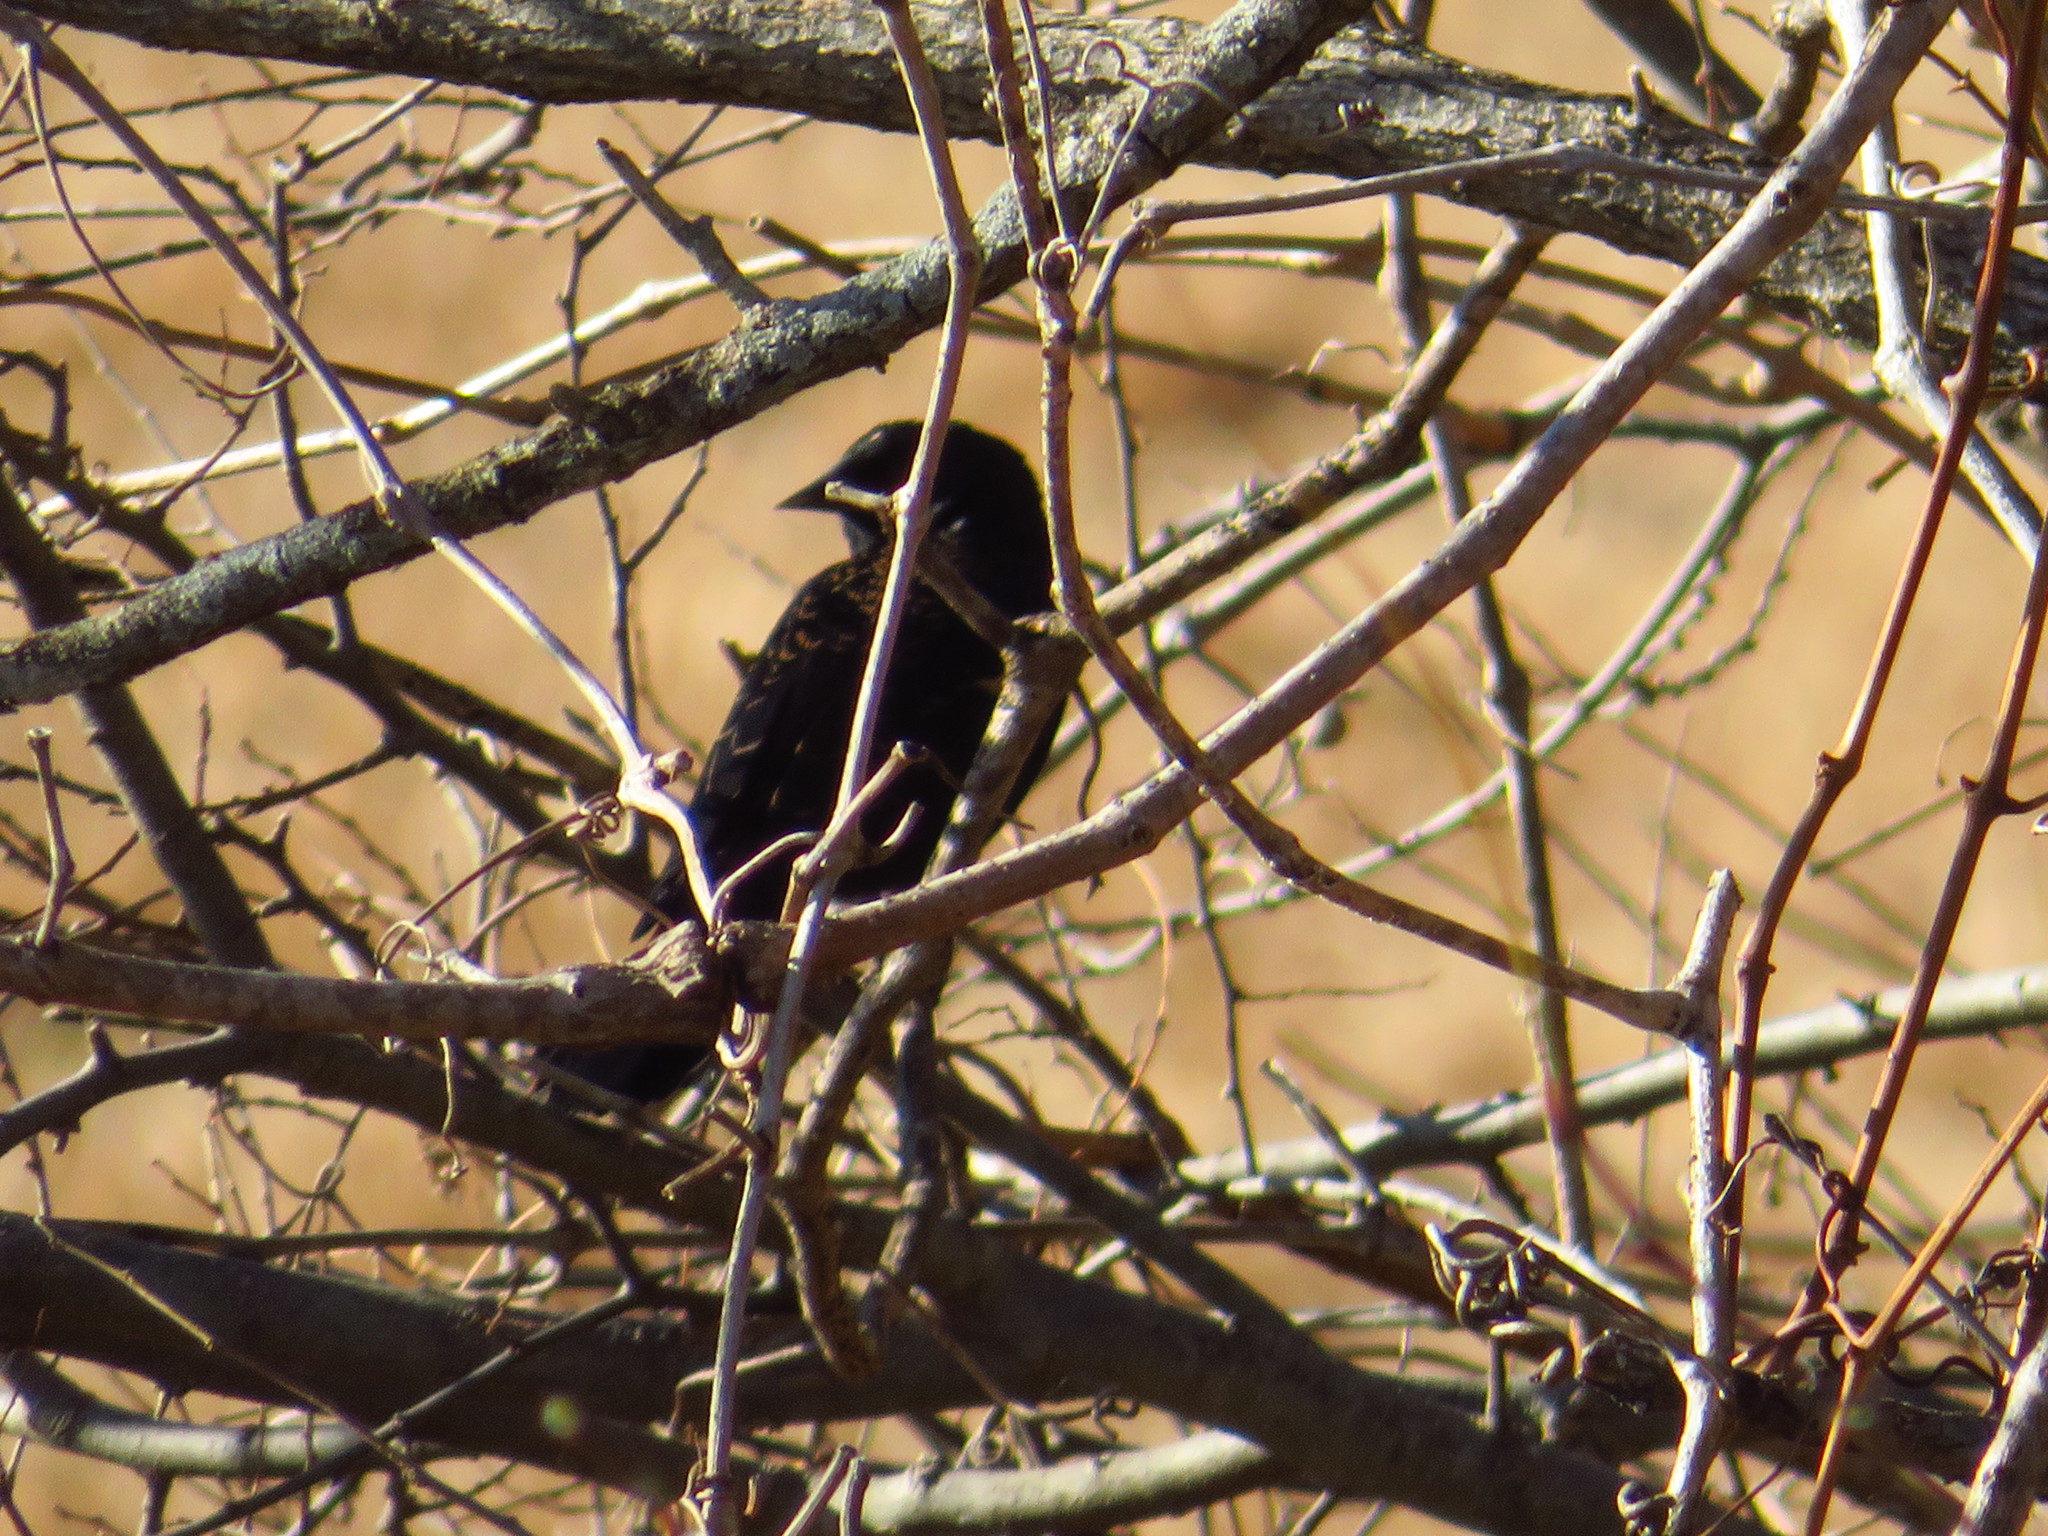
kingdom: Animalia
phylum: Chordata
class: Aves
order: Passeriformes
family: Icteridae
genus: Agelaius
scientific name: Agelaius phoeniceus
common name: Red-winged blackbird
